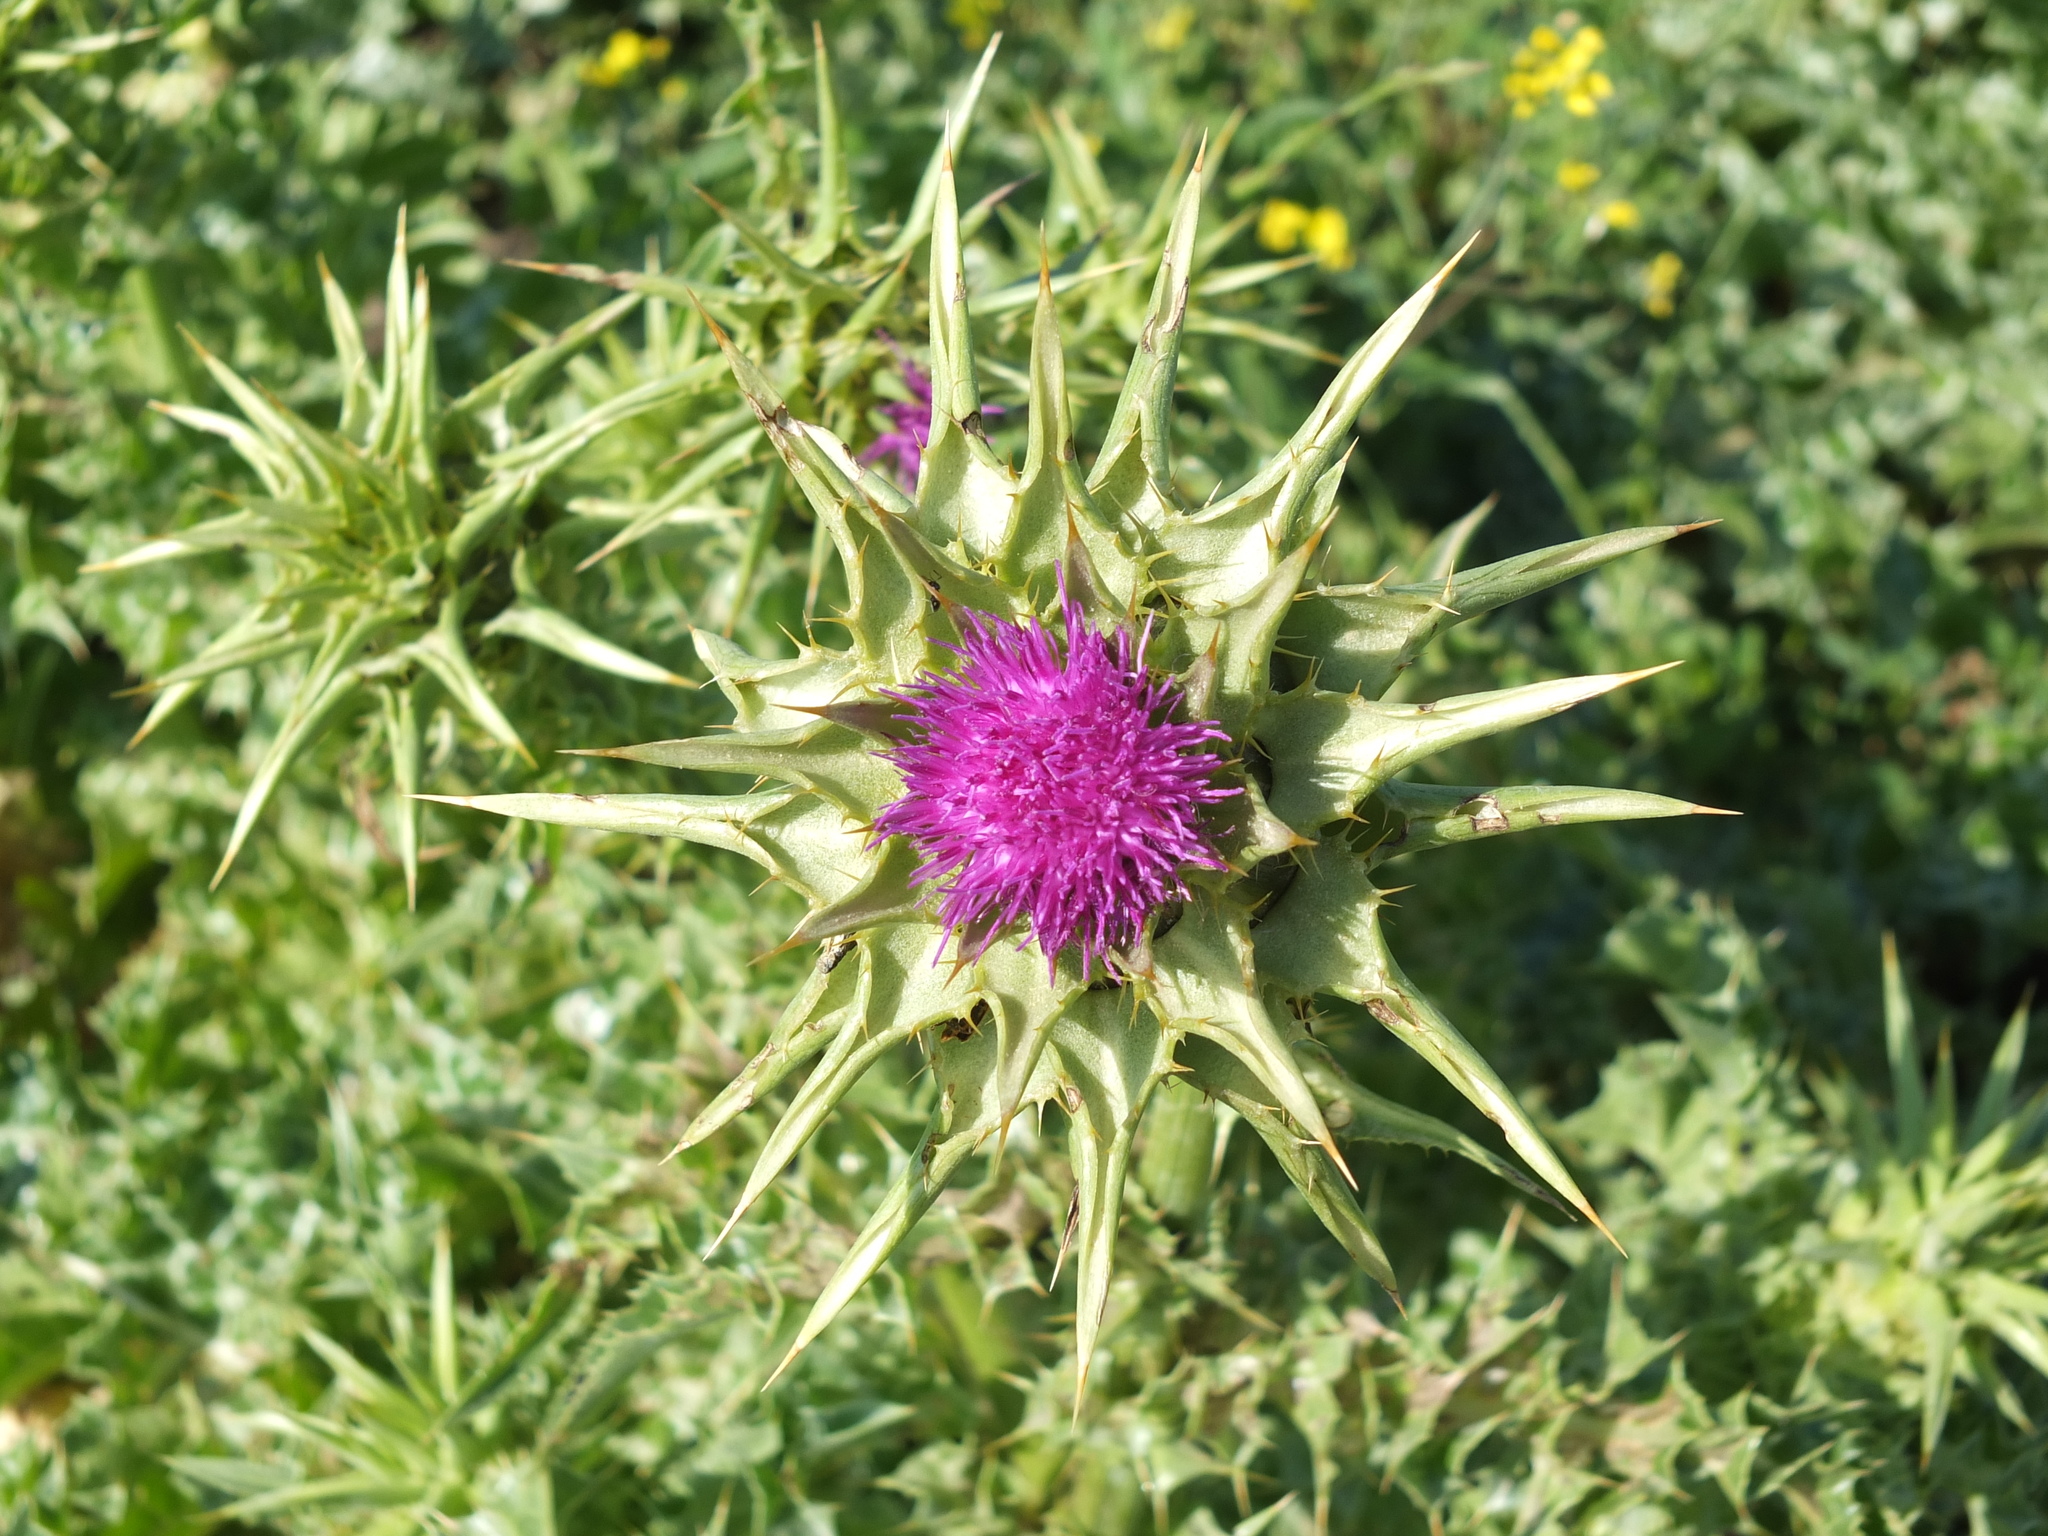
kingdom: Plantae
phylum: Tracheophyta
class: Magnoliopsida
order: Asterales
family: Asteraceae
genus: Silybum
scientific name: Silybum marianum
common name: Milk thistle
